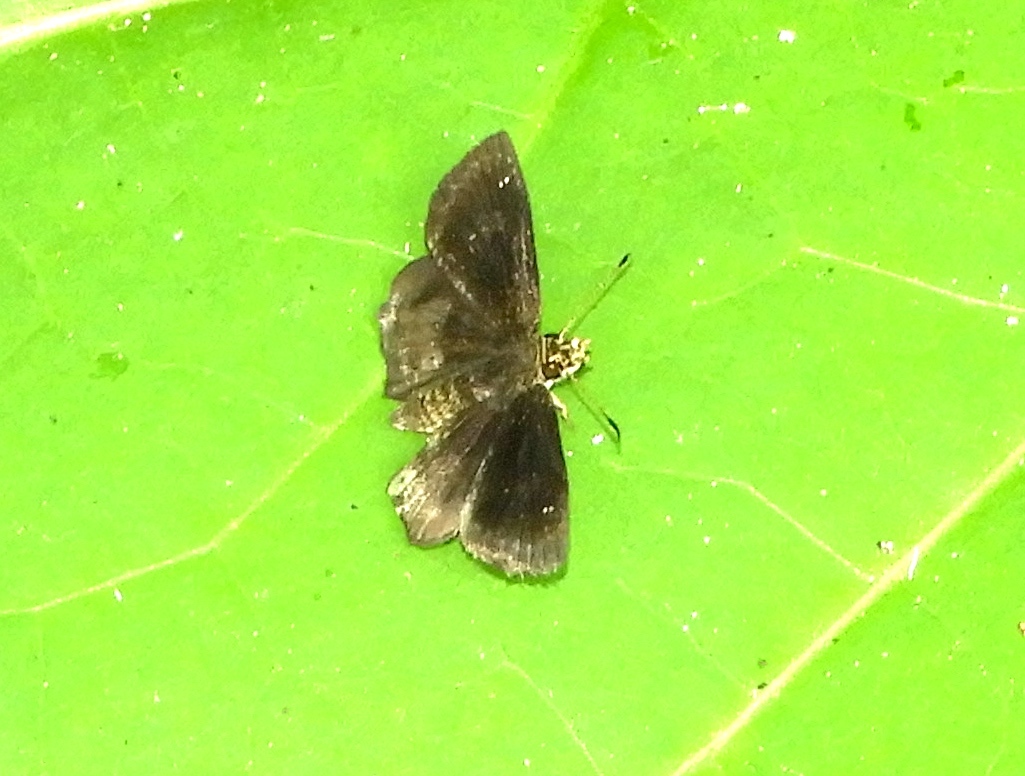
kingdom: Animalia
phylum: Arthropoda
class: Insecta
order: Lepidoptera
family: Hesperiidae
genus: Staphylus
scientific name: Staphylus mazans
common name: Mazans scallopwing
